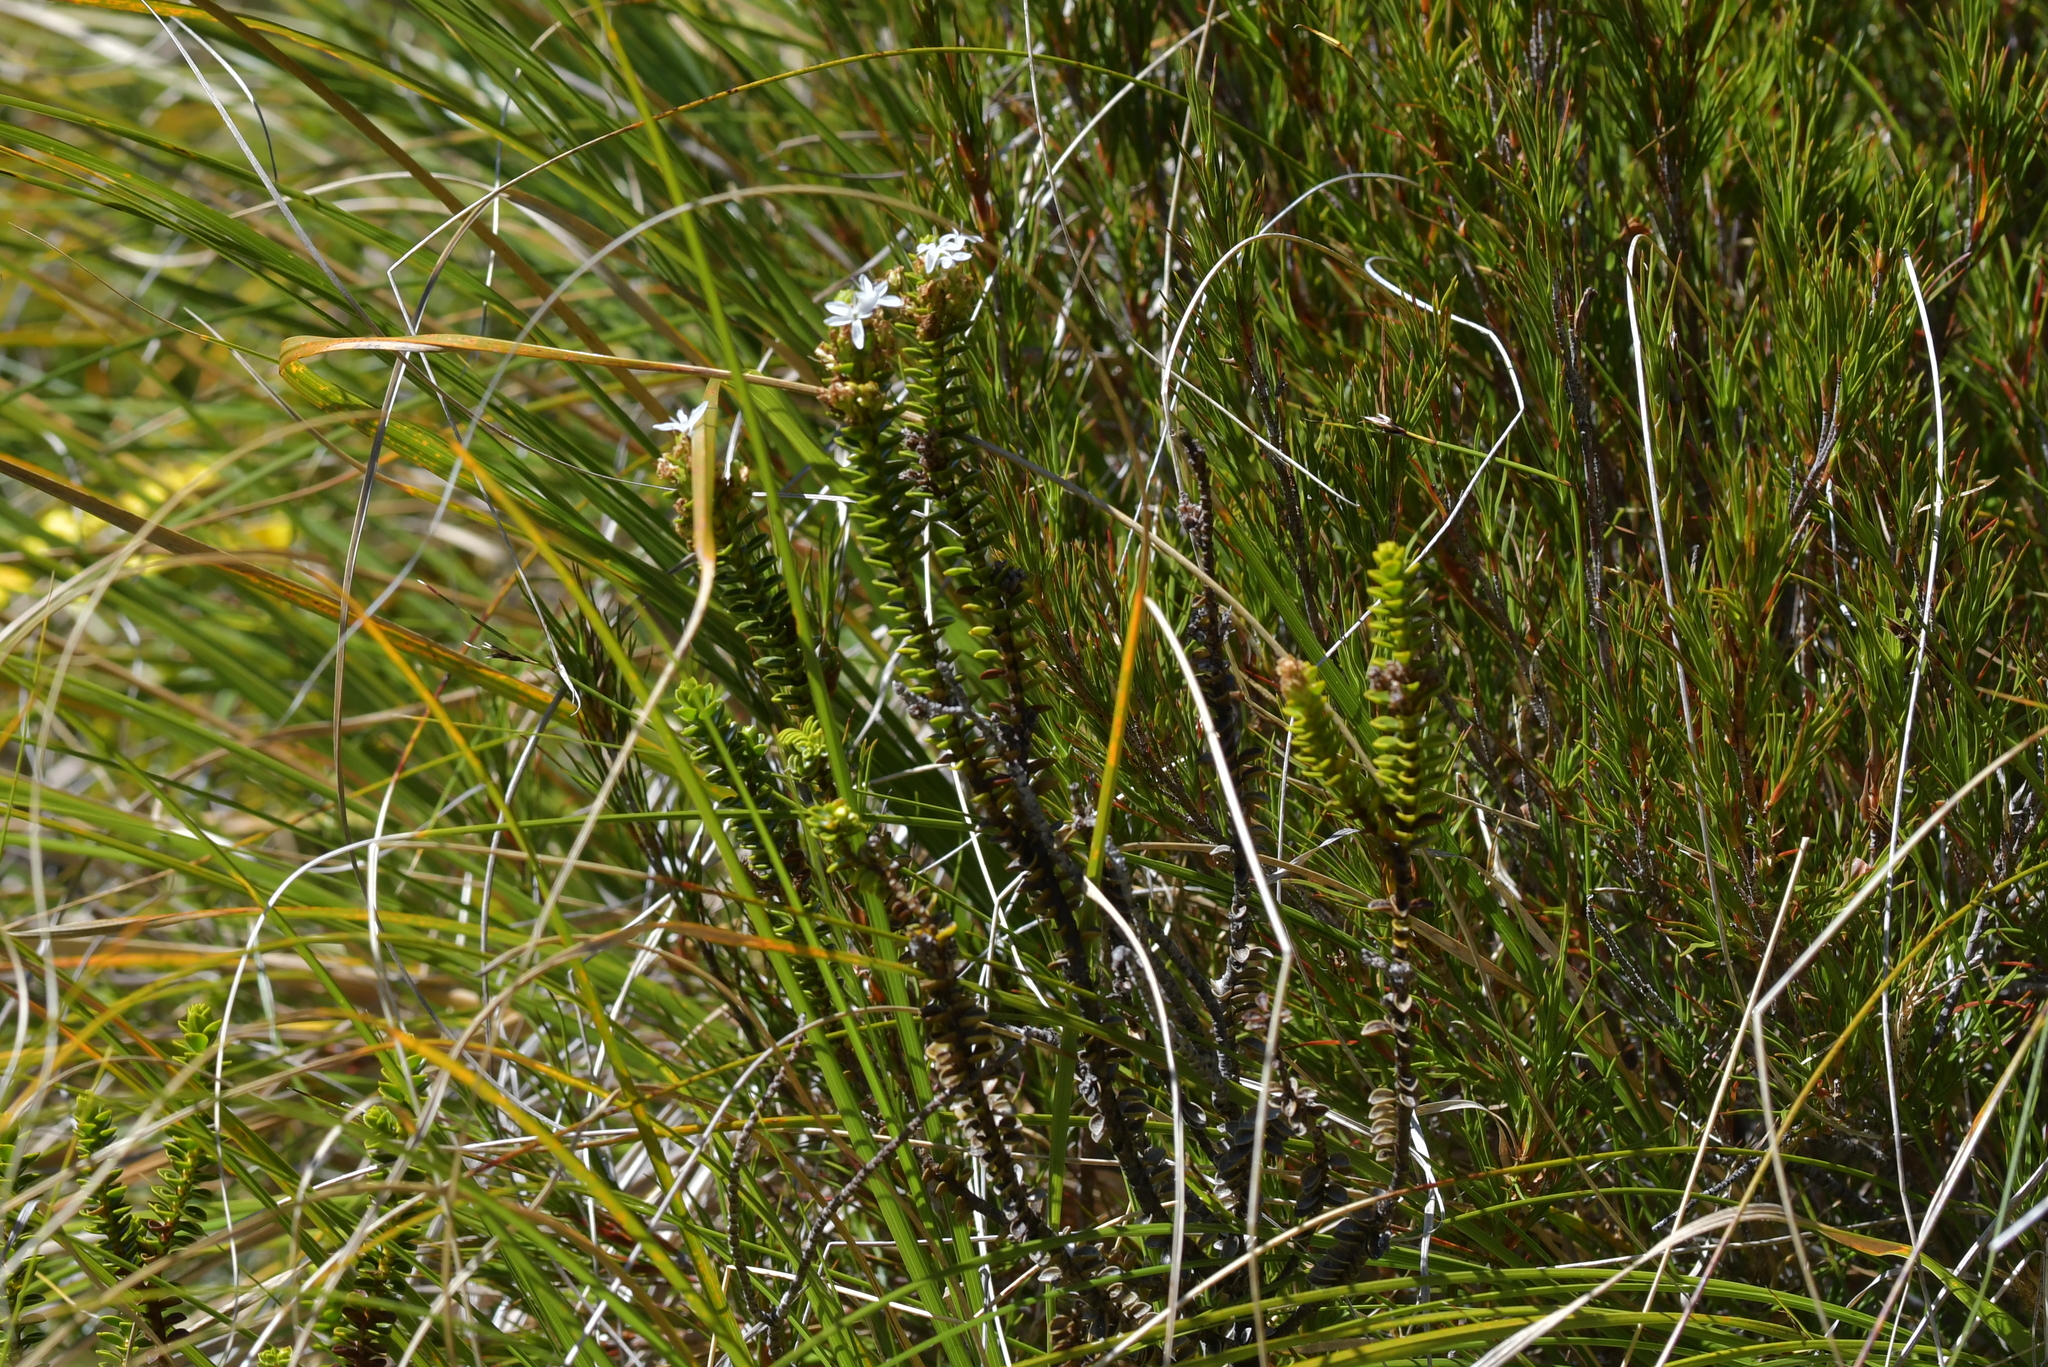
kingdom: Plantae
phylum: Tracheophyta
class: Magnoliopsida
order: Lamiales
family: Plantaginaceae
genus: Veronica
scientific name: Veronica pauciramosa
